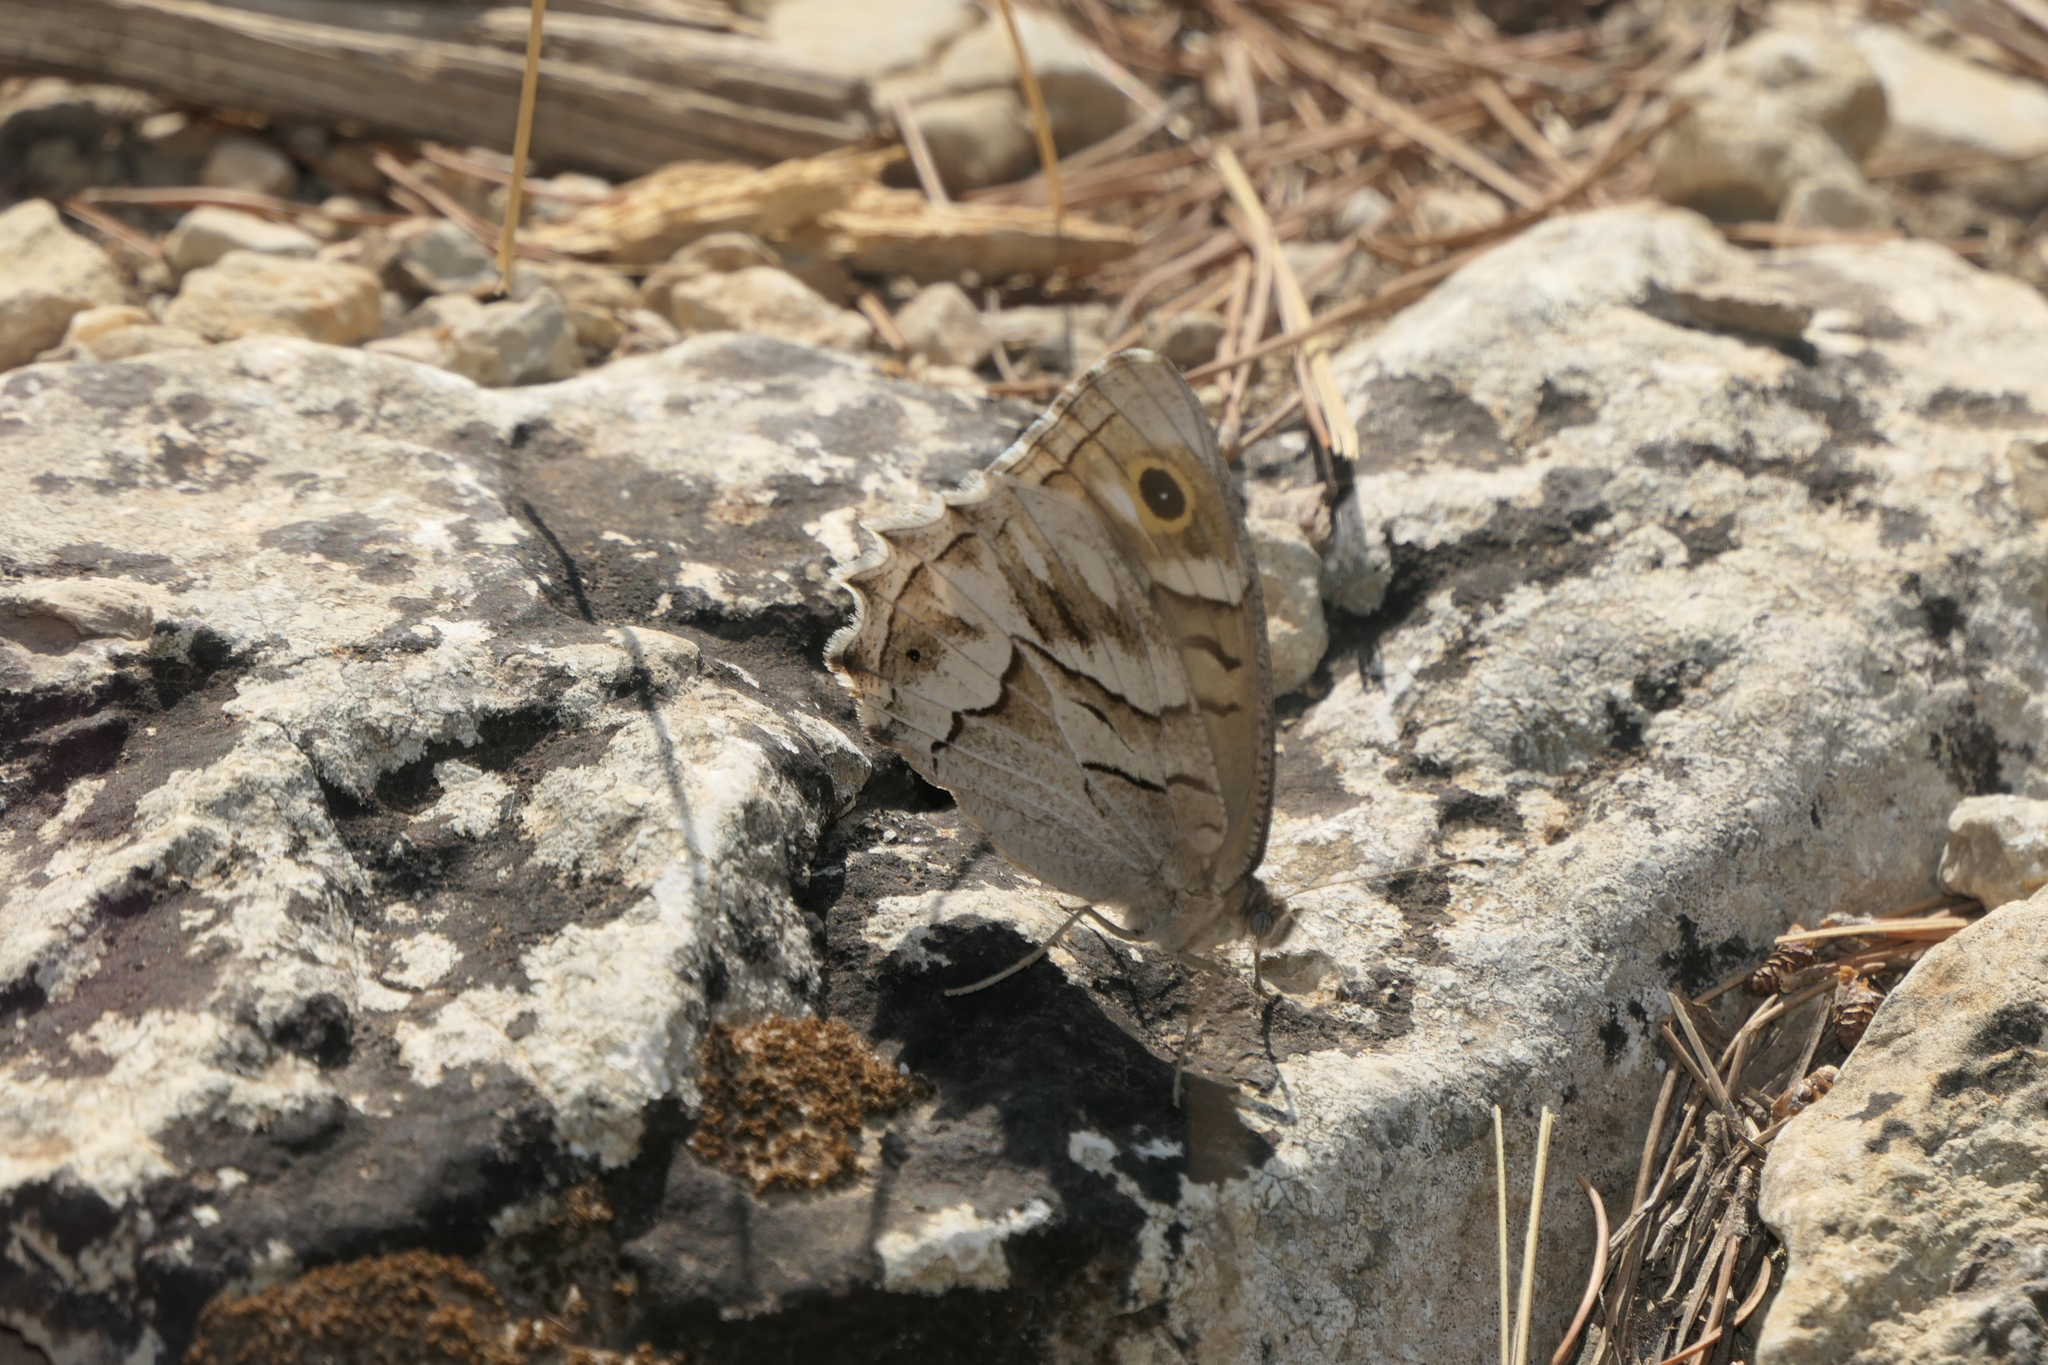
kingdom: Animalia
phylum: Arthropoda
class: Insecta
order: Lepidoptera
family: Nymphalidae
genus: Hipparchia
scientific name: Hipparchia fidia
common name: Striped grayling
